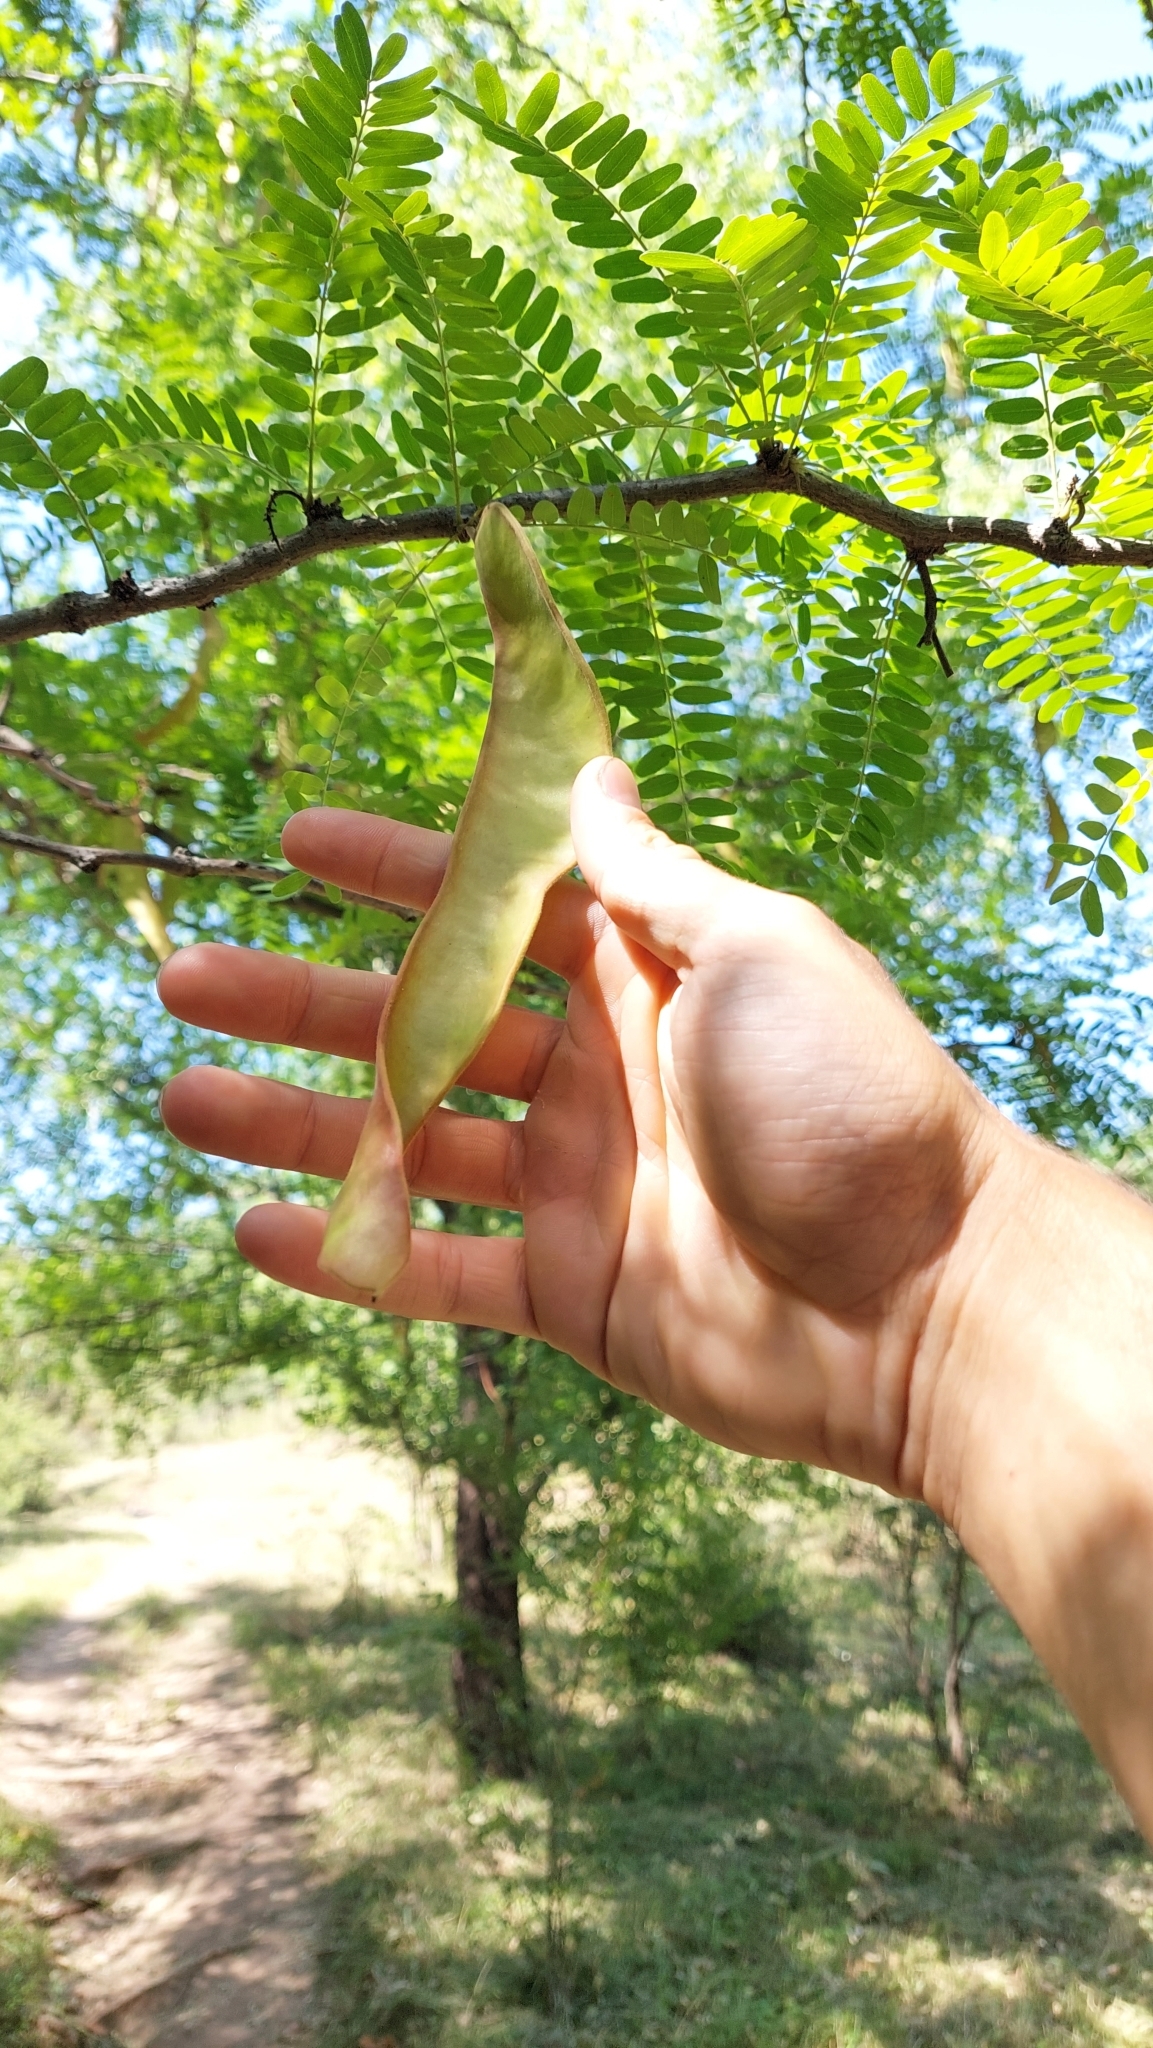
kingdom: Plantae
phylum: Tracheophyta
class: Magnoliopsida
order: Fabales
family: Fabaceae
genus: Gleditsia
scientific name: Gleditsia triacanthos
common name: Common honeylocust
